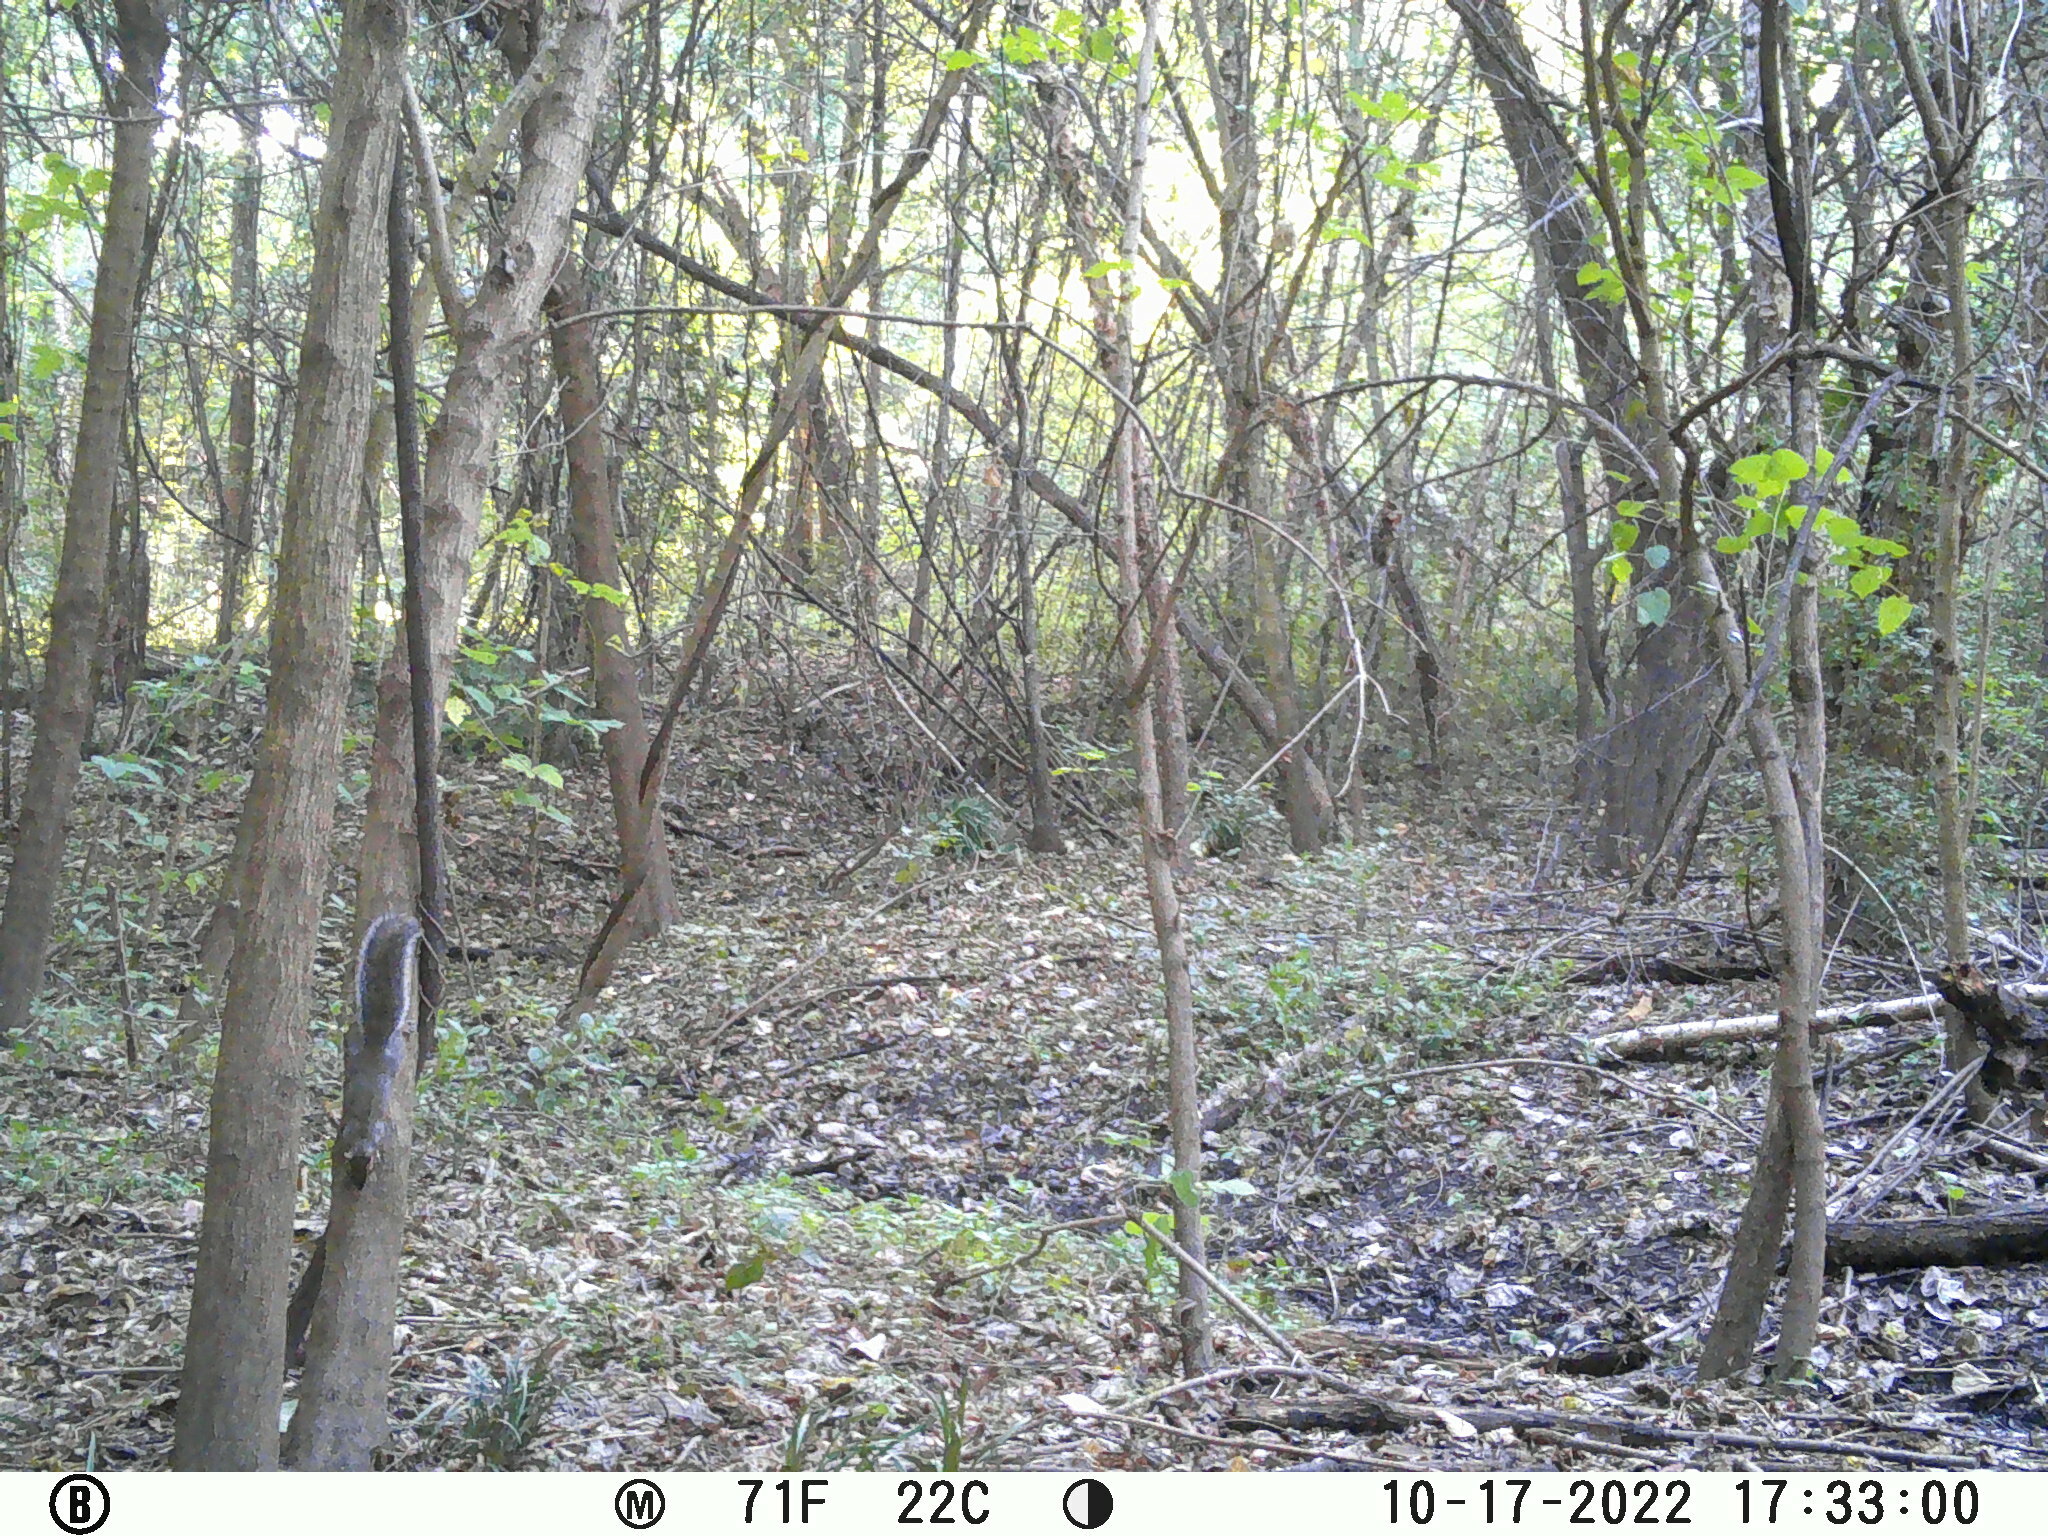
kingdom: Animalia
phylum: Chordata
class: Mammalia
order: Rodentia
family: Sciuridae
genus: Sciurus
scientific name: Sciurus carolinensis
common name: Eastern gray squirrel
